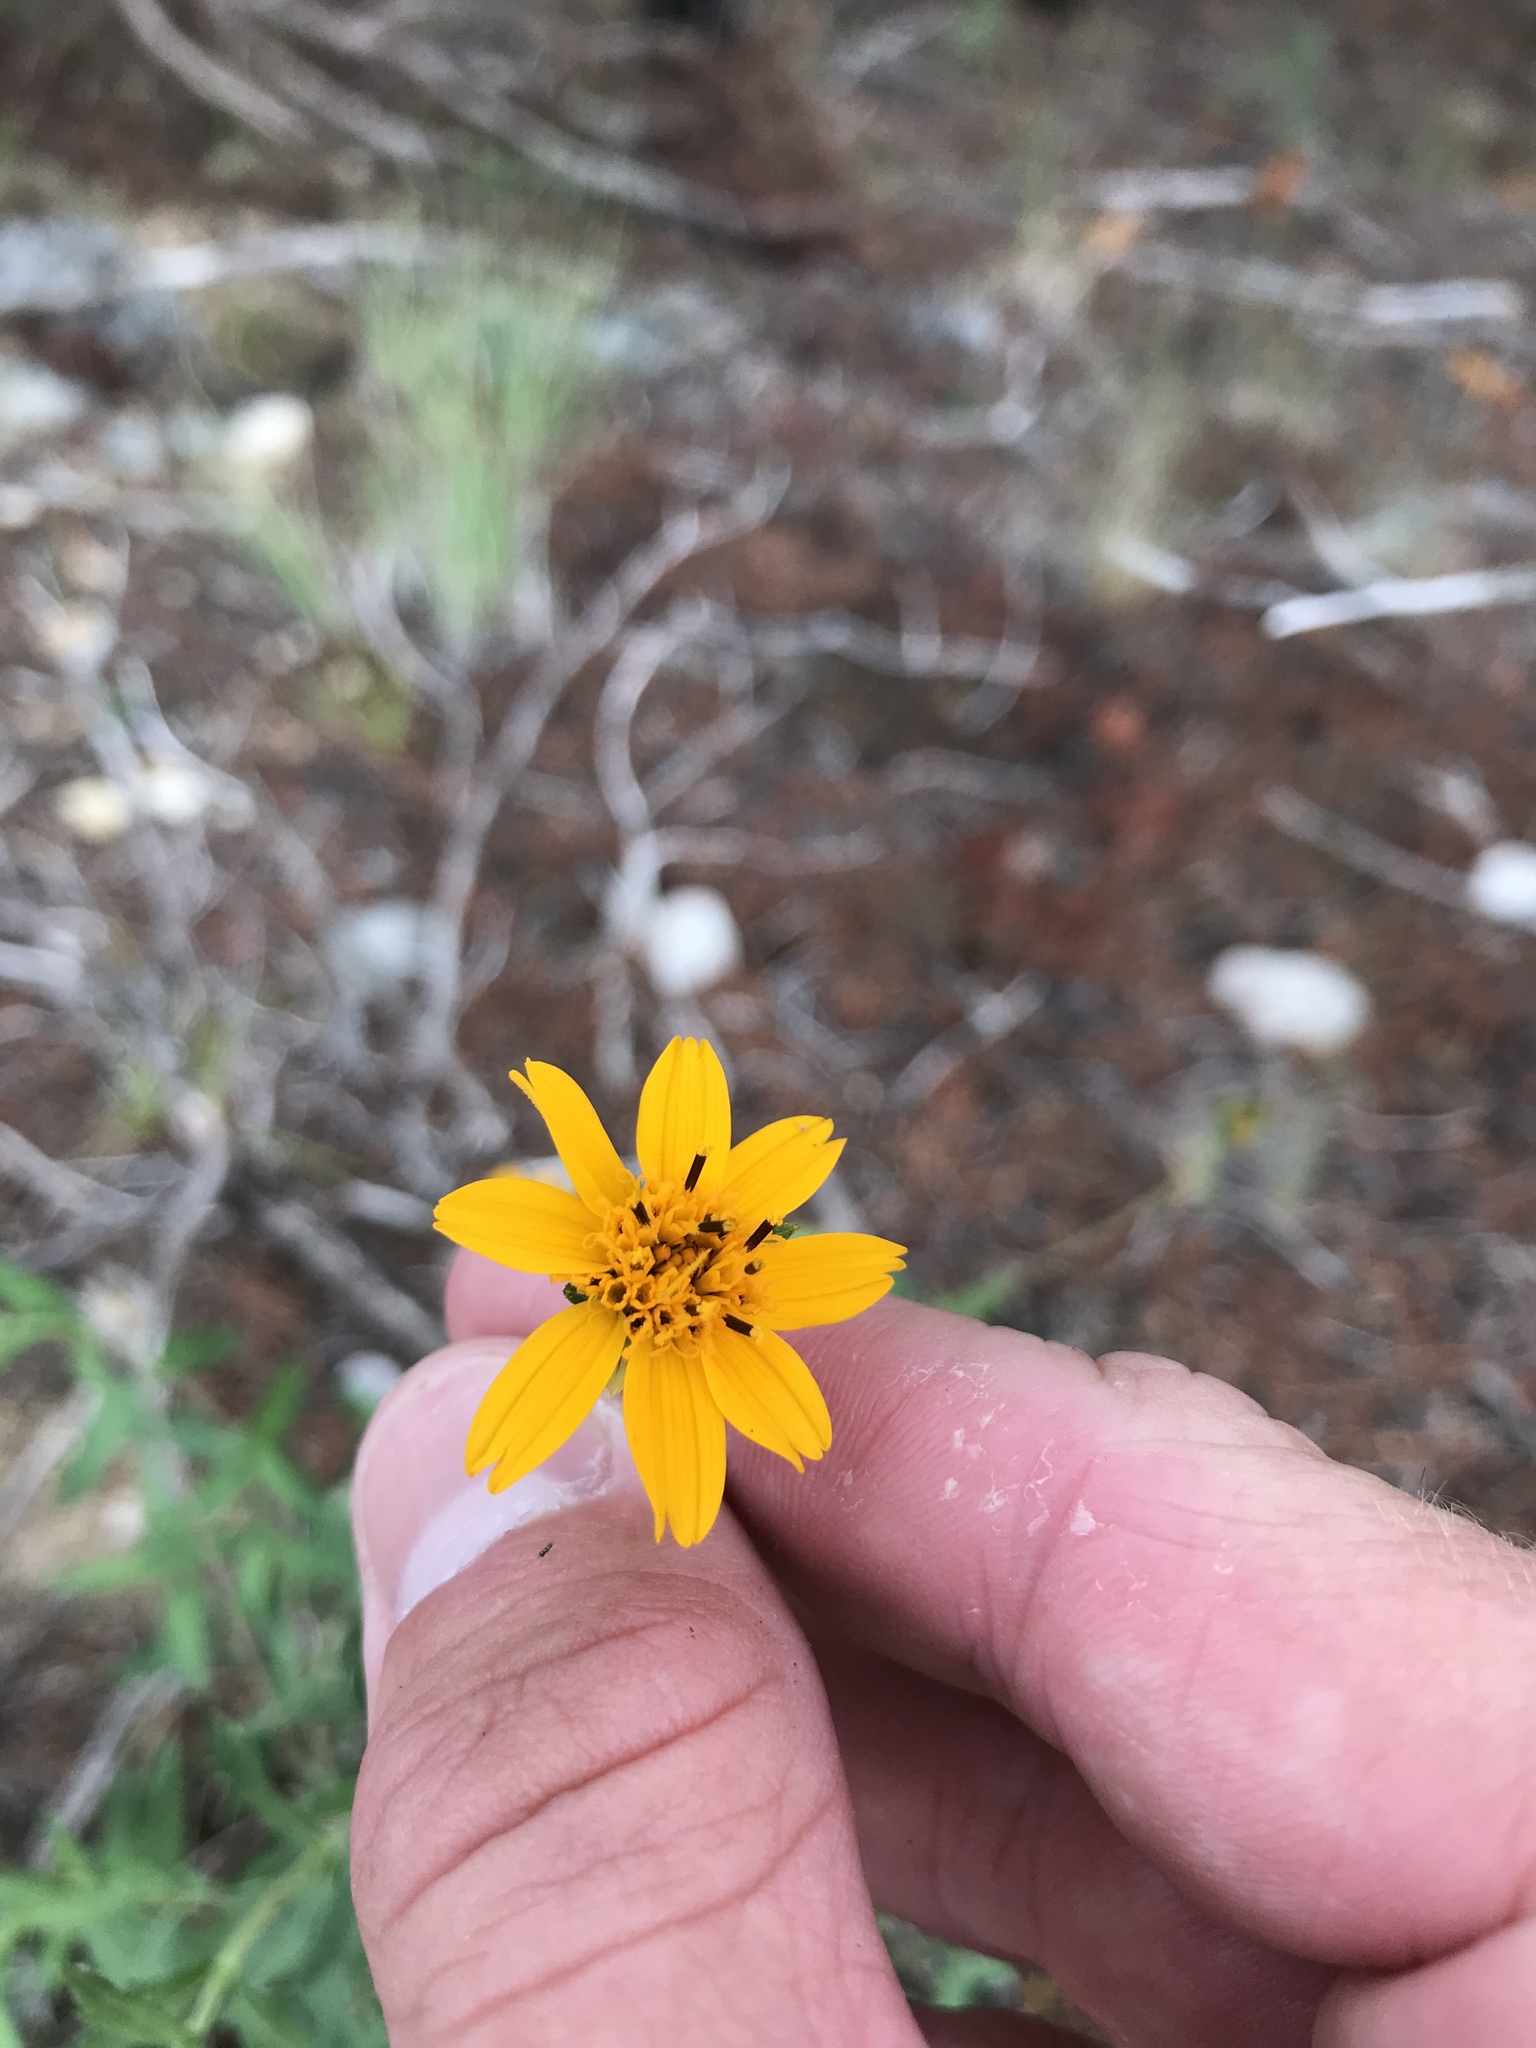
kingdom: Plantae
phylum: Tracheophyta
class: Magnoliopsida
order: Asterales
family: Asteraceae
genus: Wedelia
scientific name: Wedelia acapulcensis
